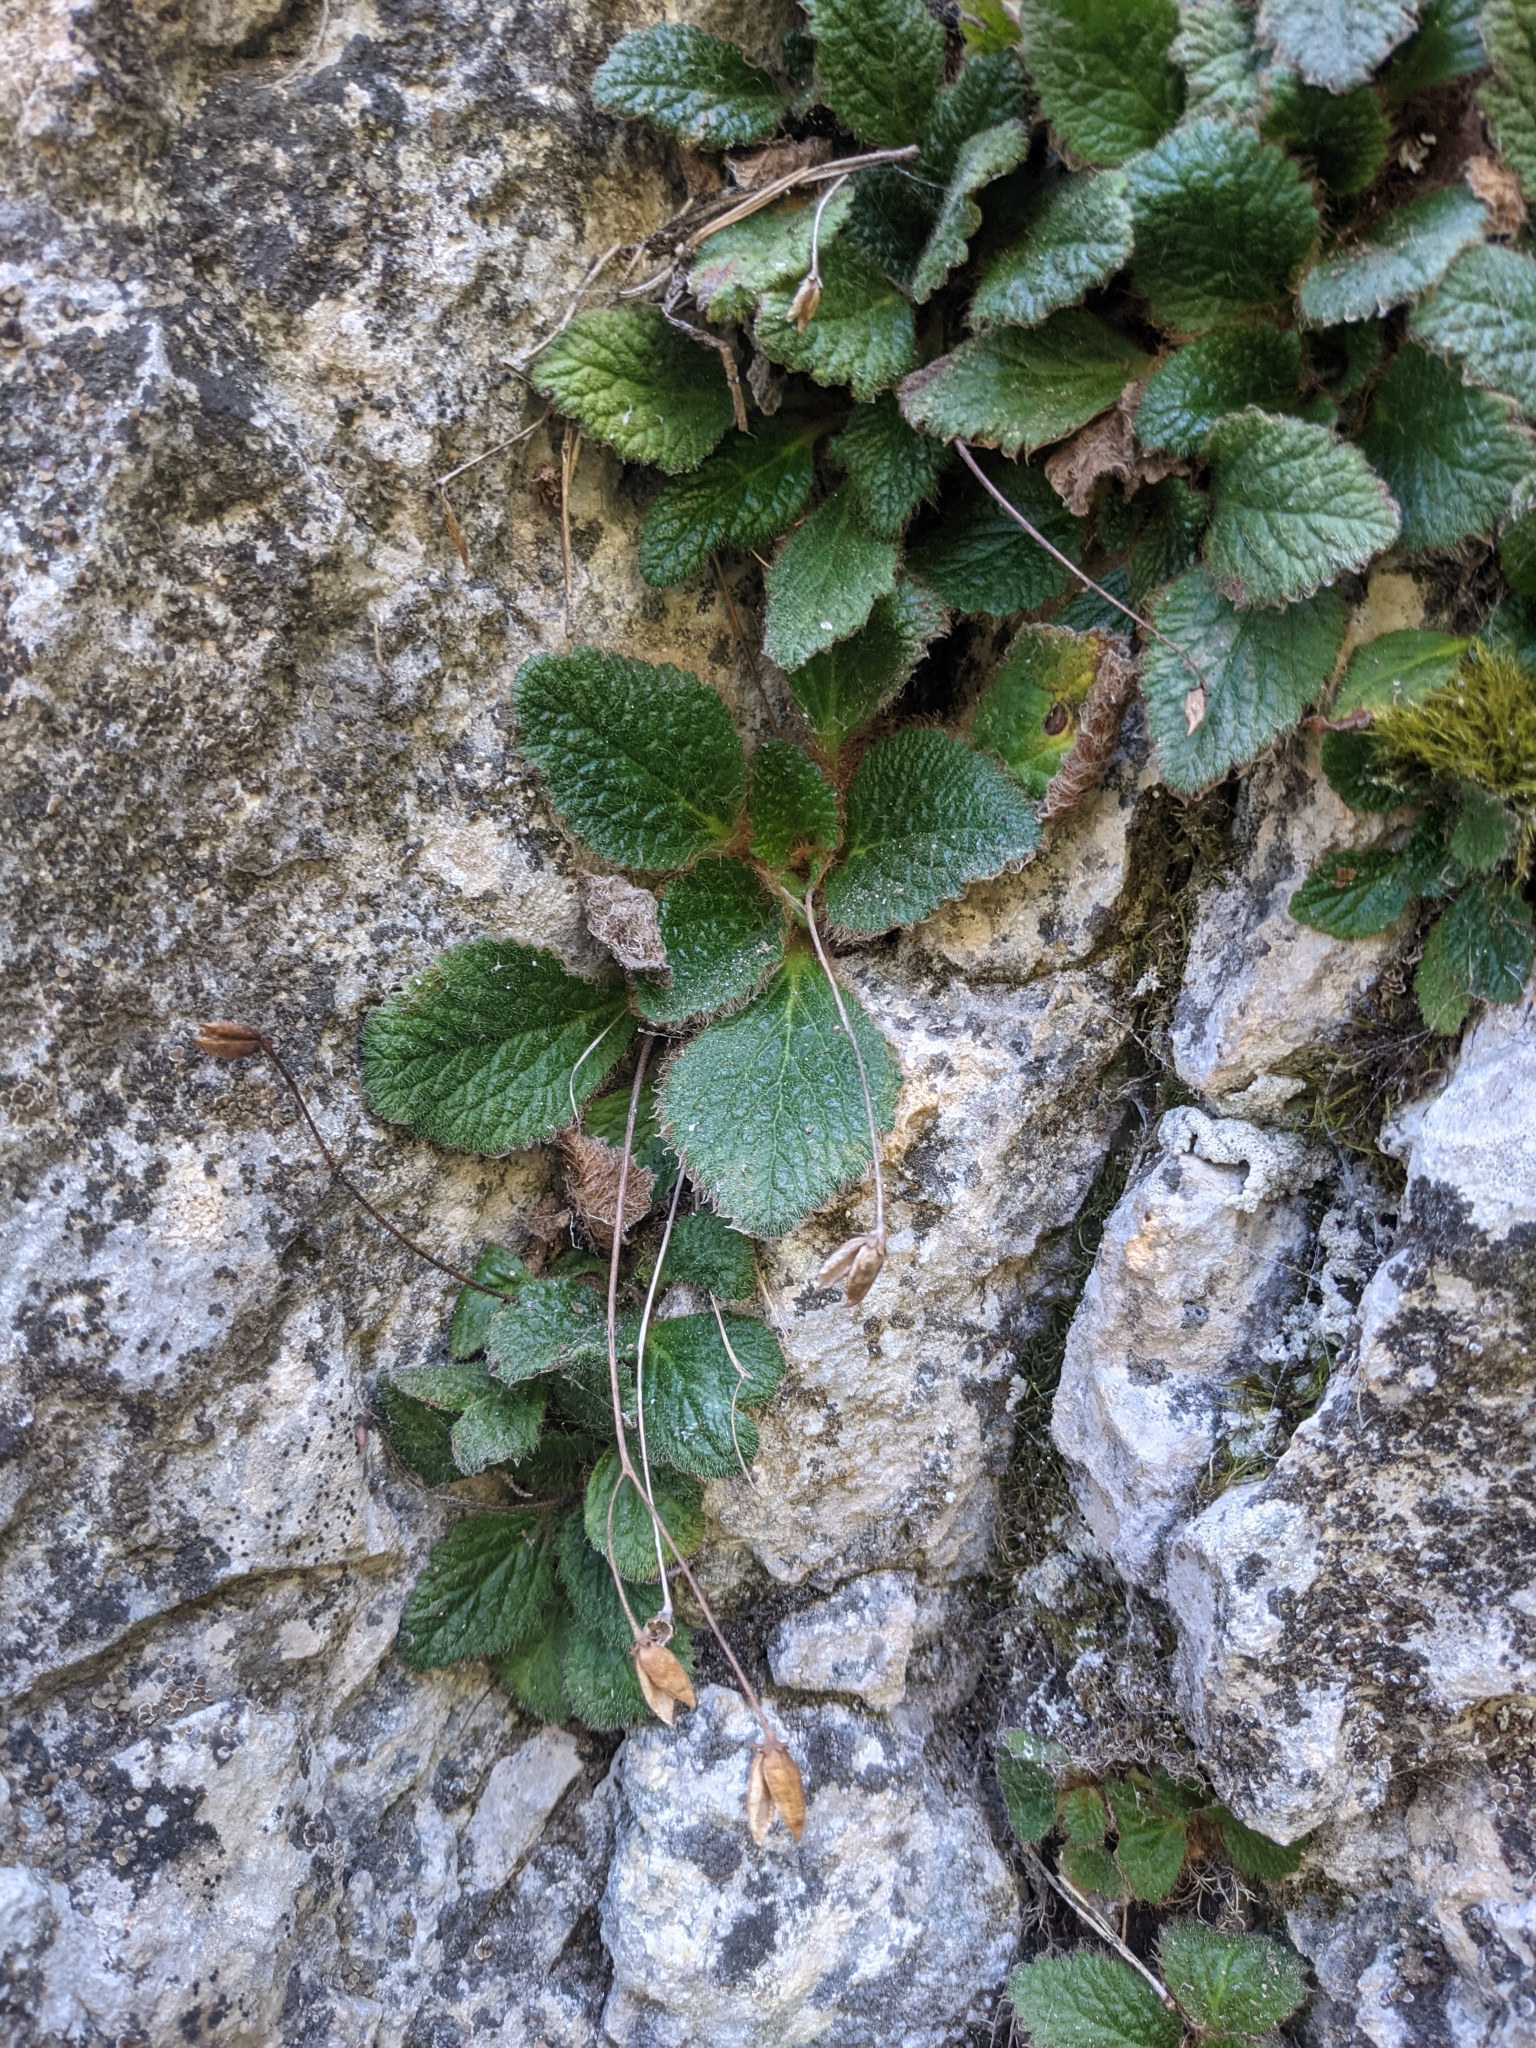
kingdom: Plantae
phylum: Tracheophyta
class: Magnoliopsida
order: Lamiales
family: Gesneriaceae
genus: Ramonda
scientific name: Ramonda myconi
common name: Pyrenean-violet
